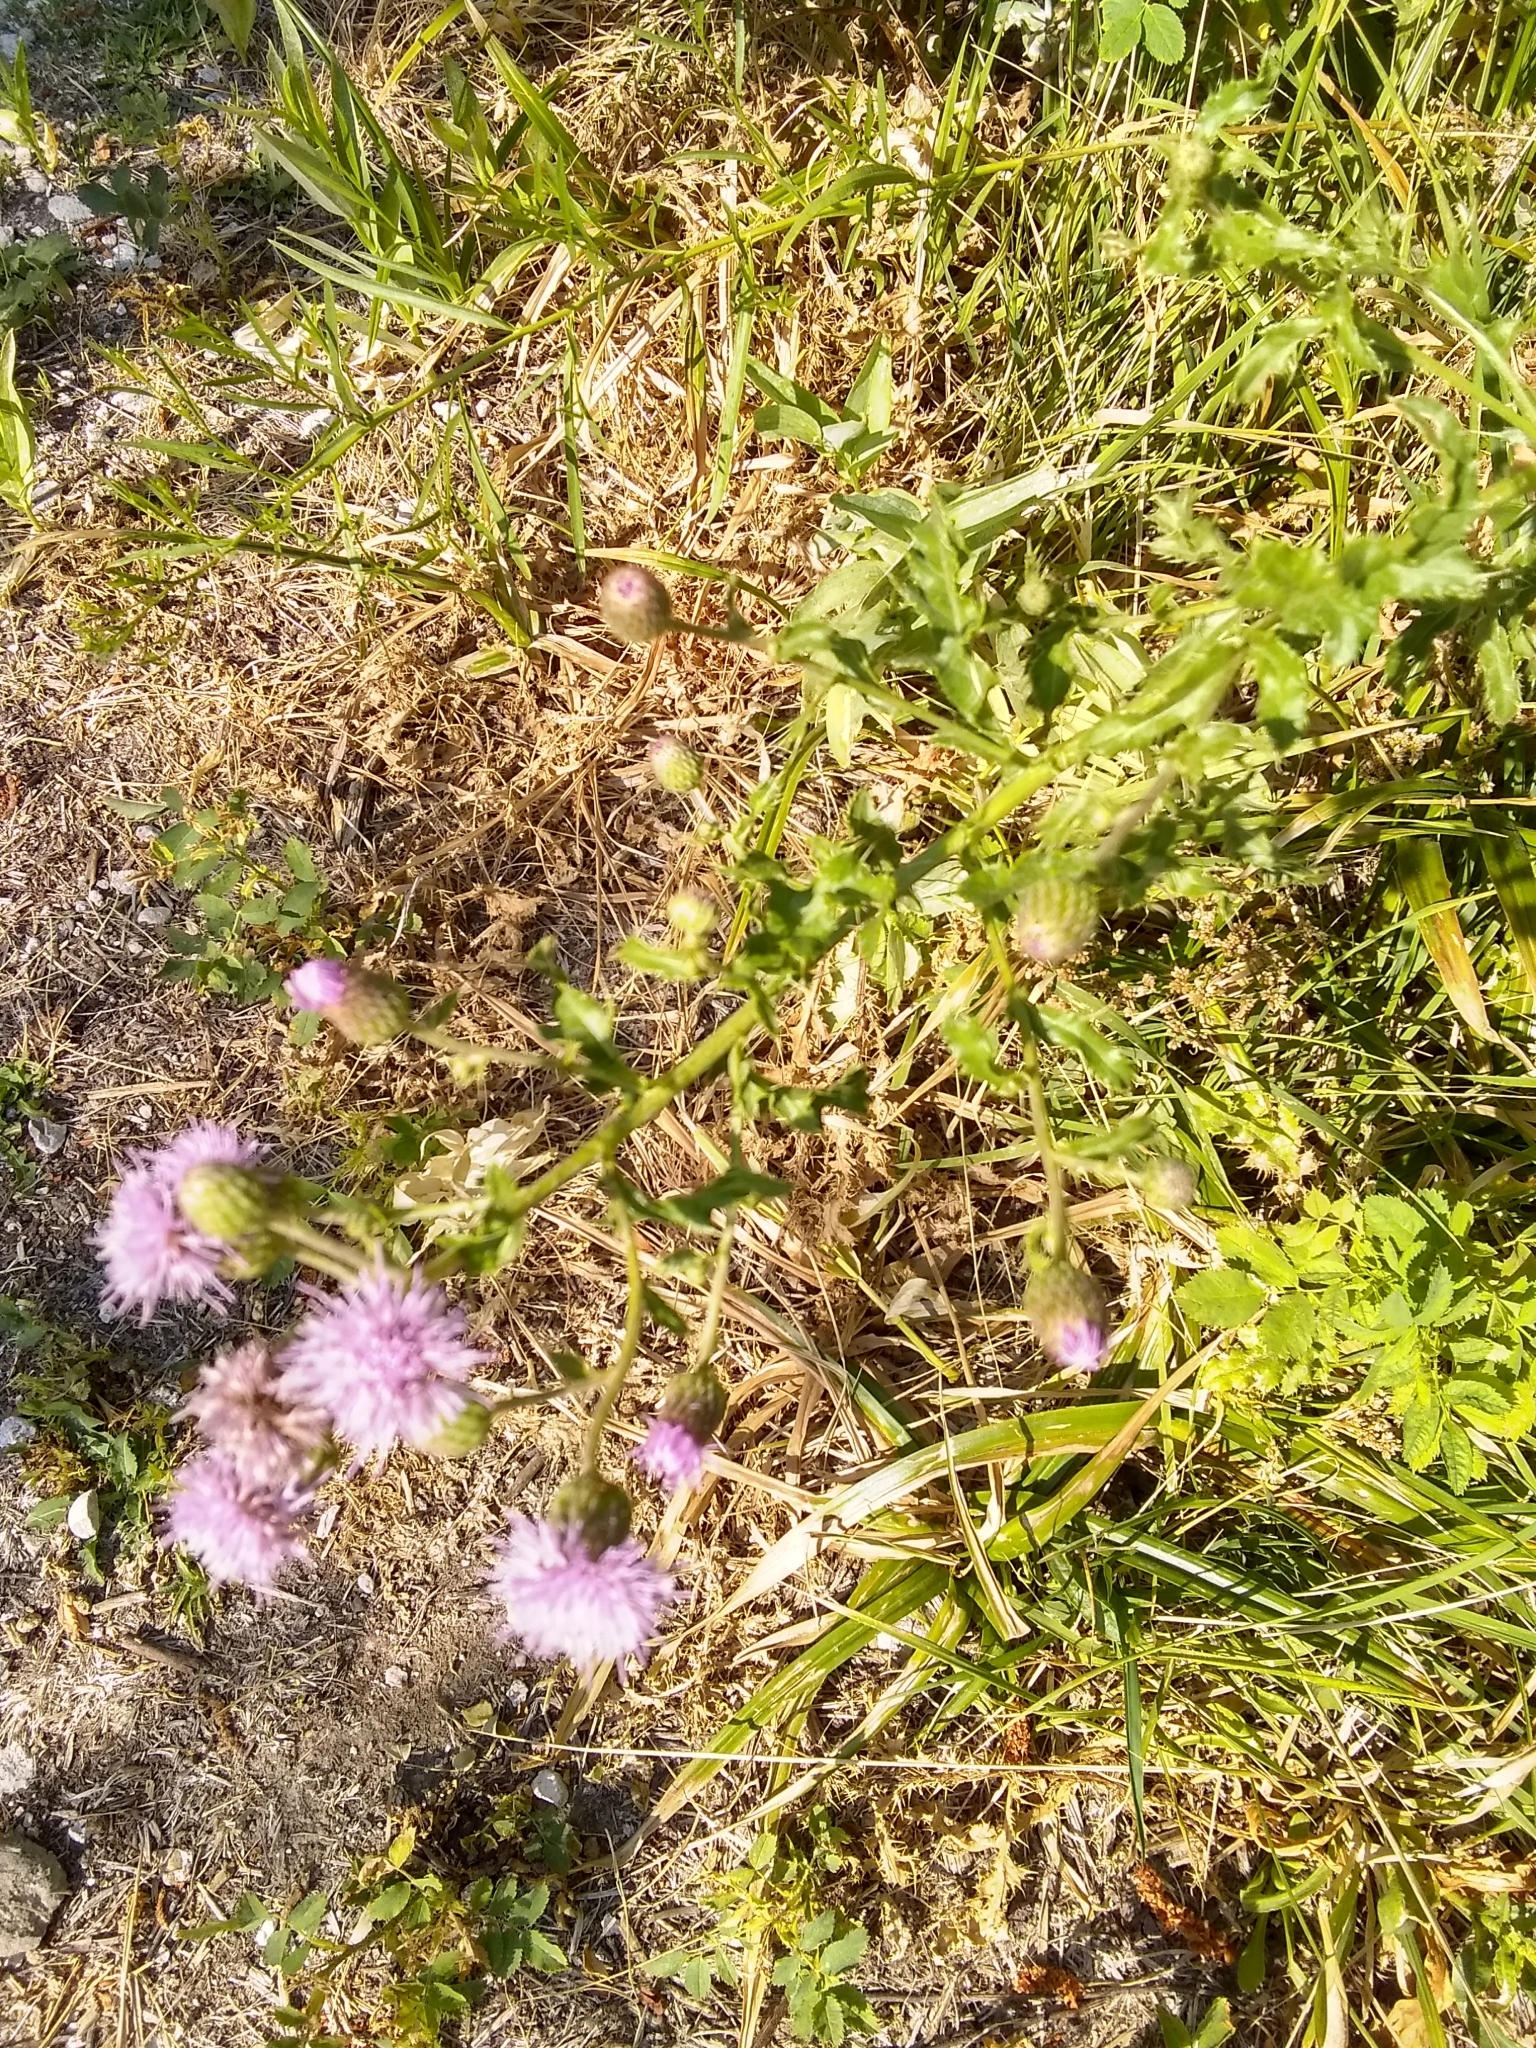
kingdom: Plantae
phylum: Tracheophyta
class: Magnoliopsida
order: Asterales
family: Asteraceae
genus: Cirsium
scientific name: Cirsium arvense
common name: Creeping thistle
